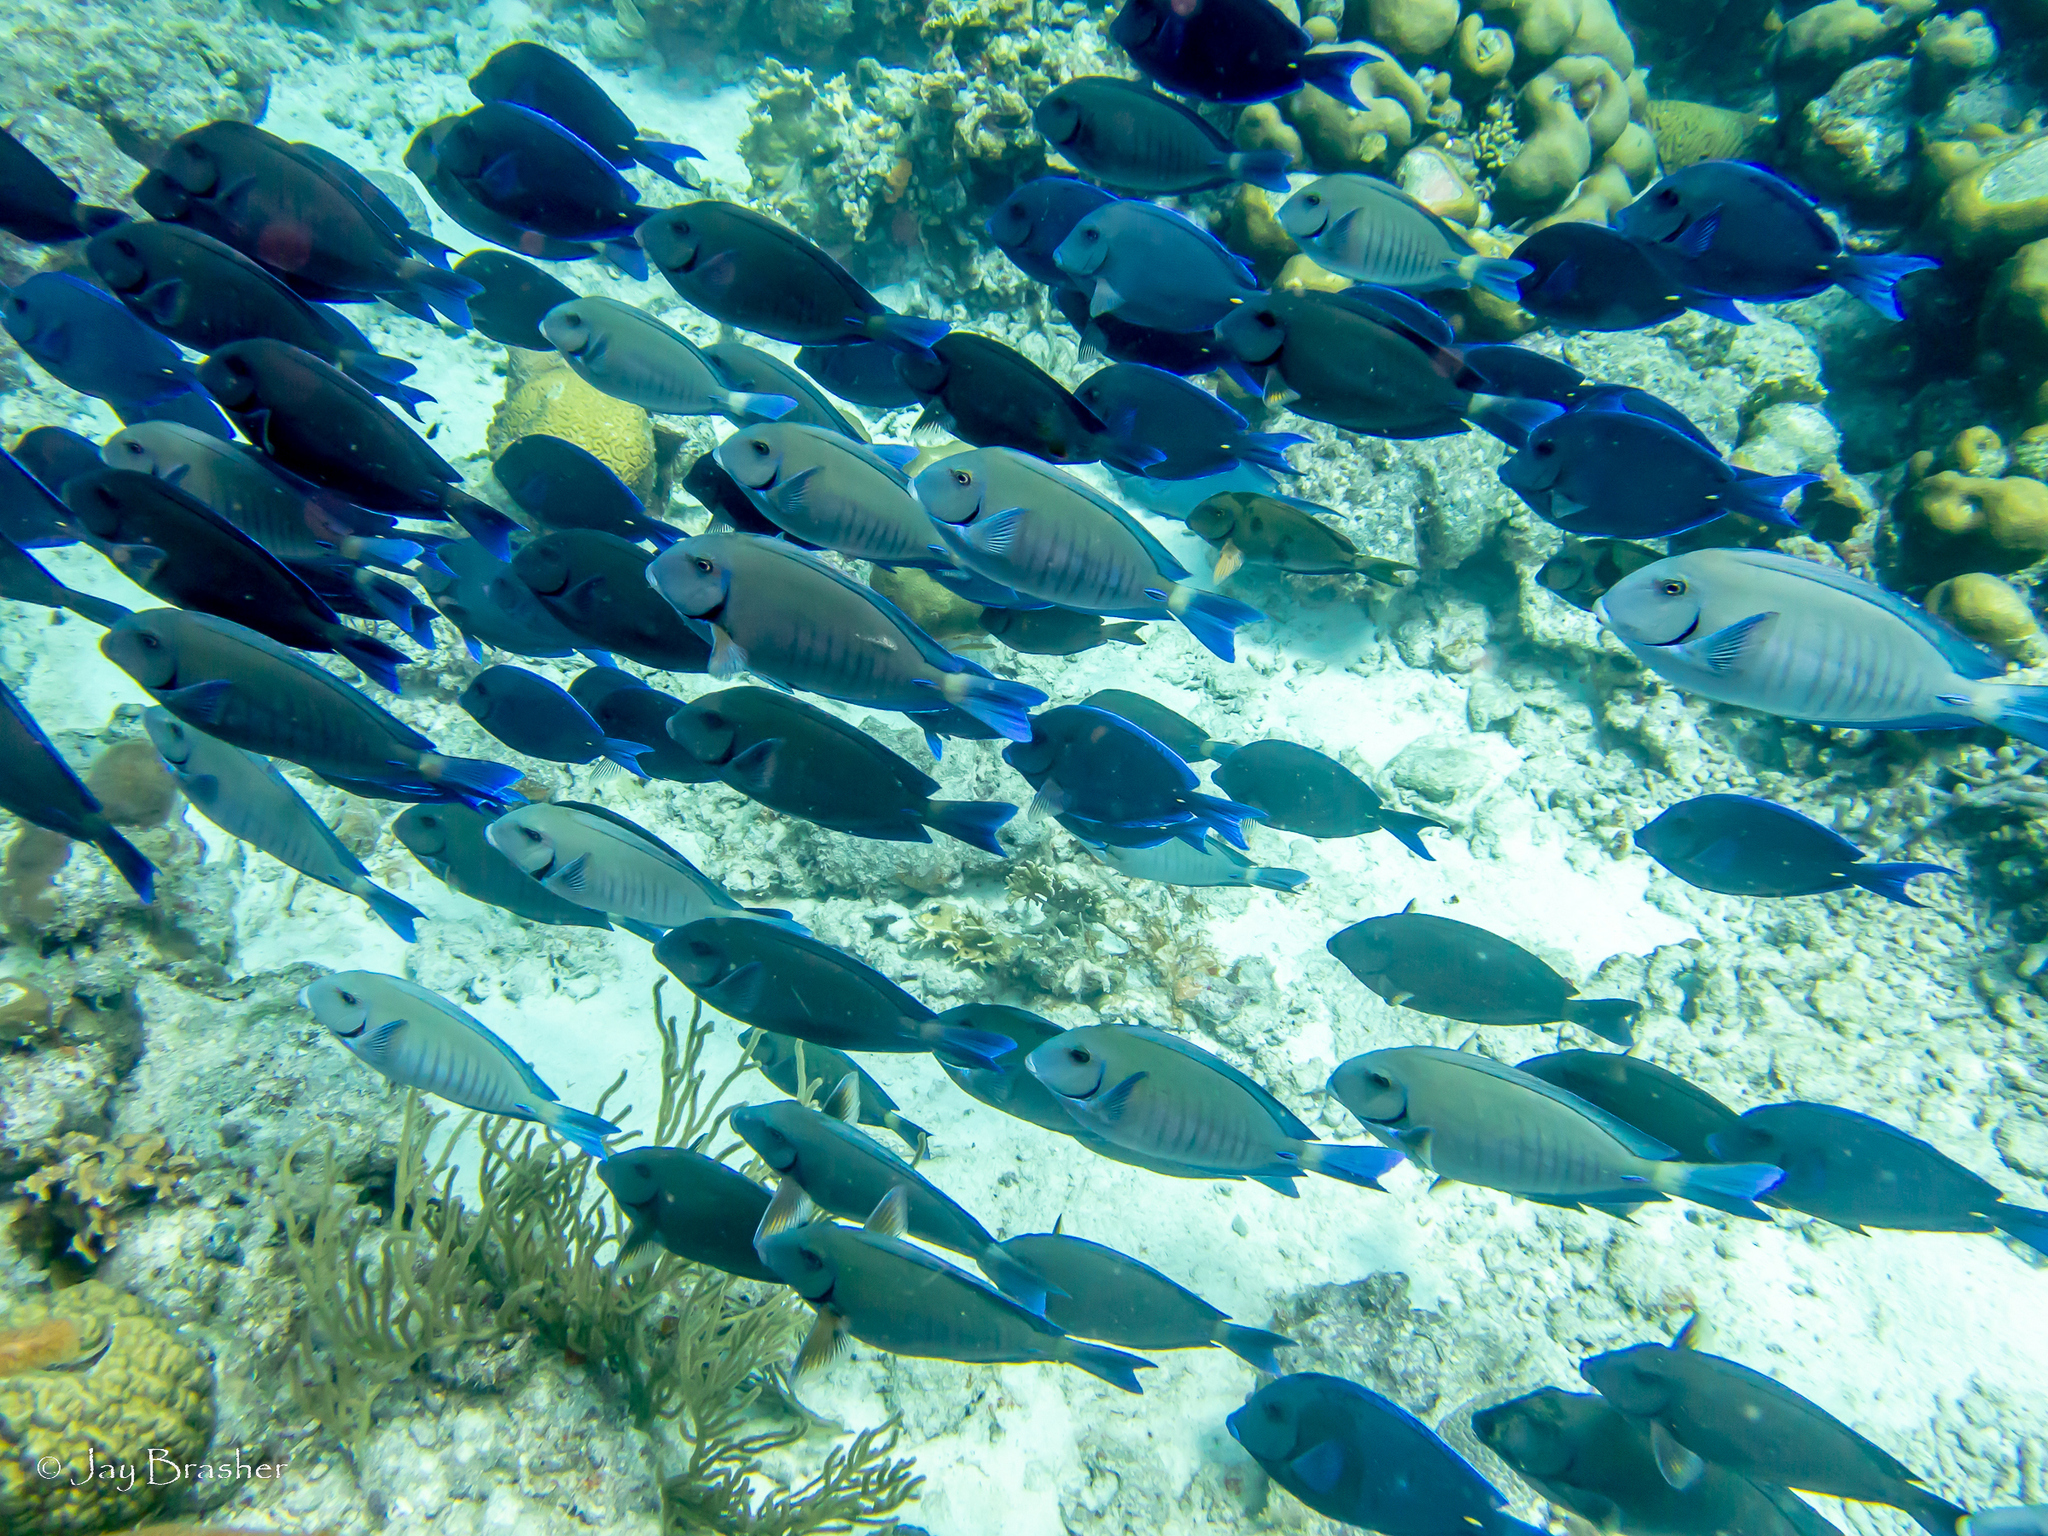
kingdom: Animalia
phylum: Chordata
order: Perciformes
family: Acanthuridae
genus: Acanthurus
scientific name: Acanthurus bahianus
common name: Ocean surgeon
